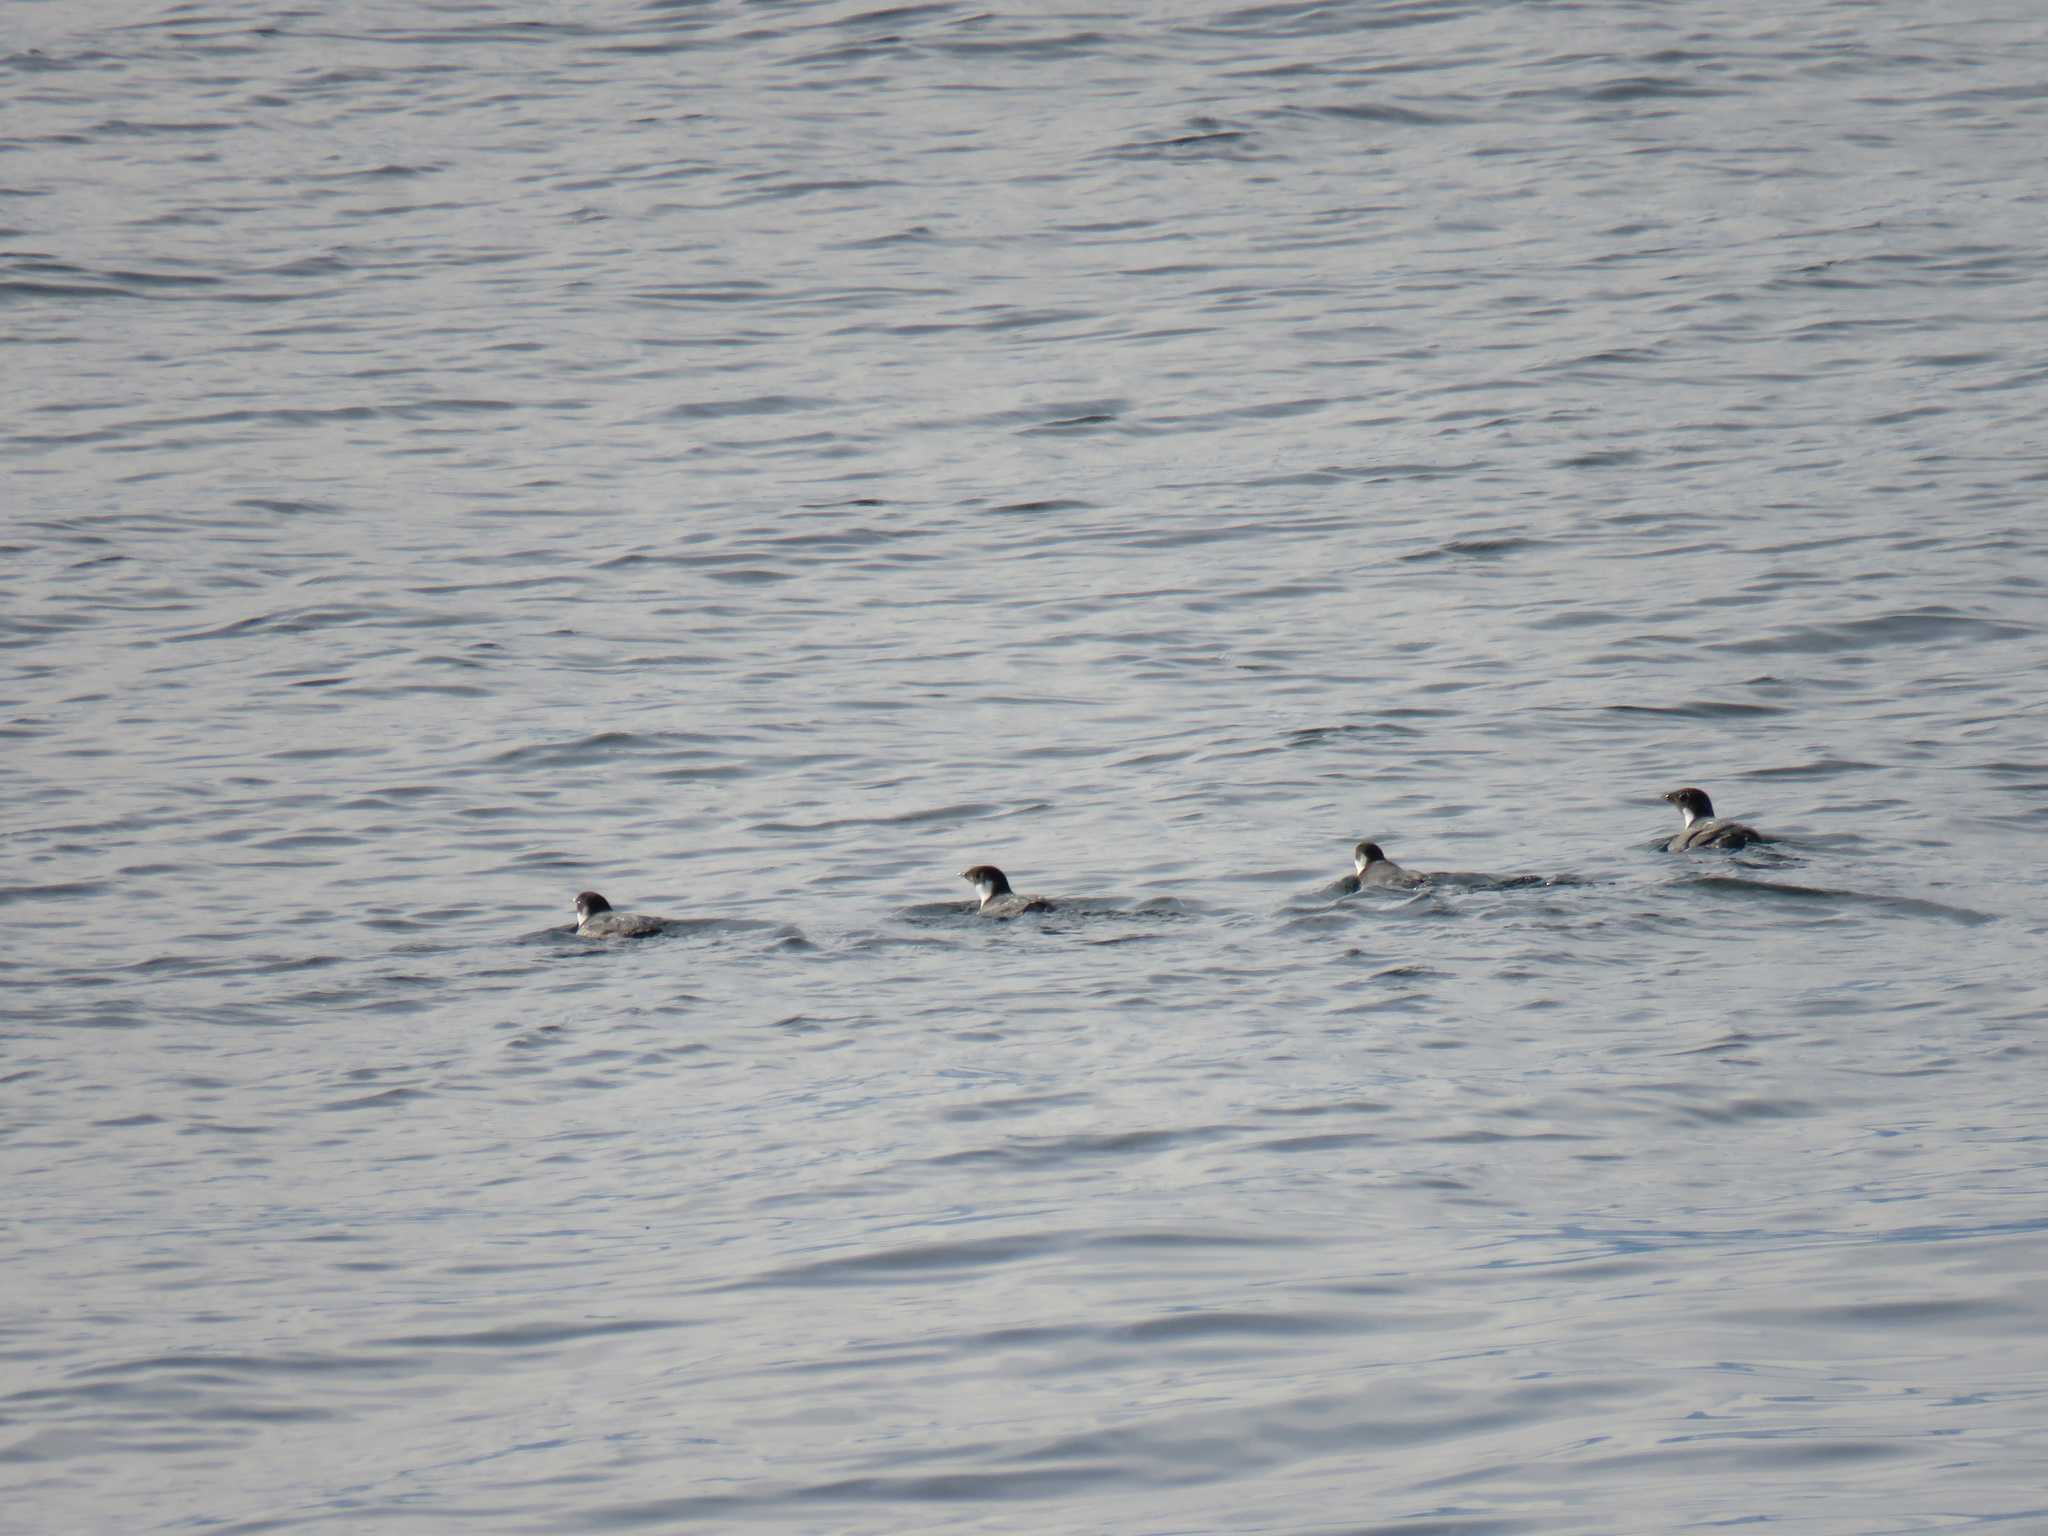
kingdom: Animalia
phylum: Chordata
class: Aves
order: Charadriiformes
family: Alcidae
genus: Synthliboramphus
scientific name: Synthliboramphus antiquus
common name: Ancient murrelet
